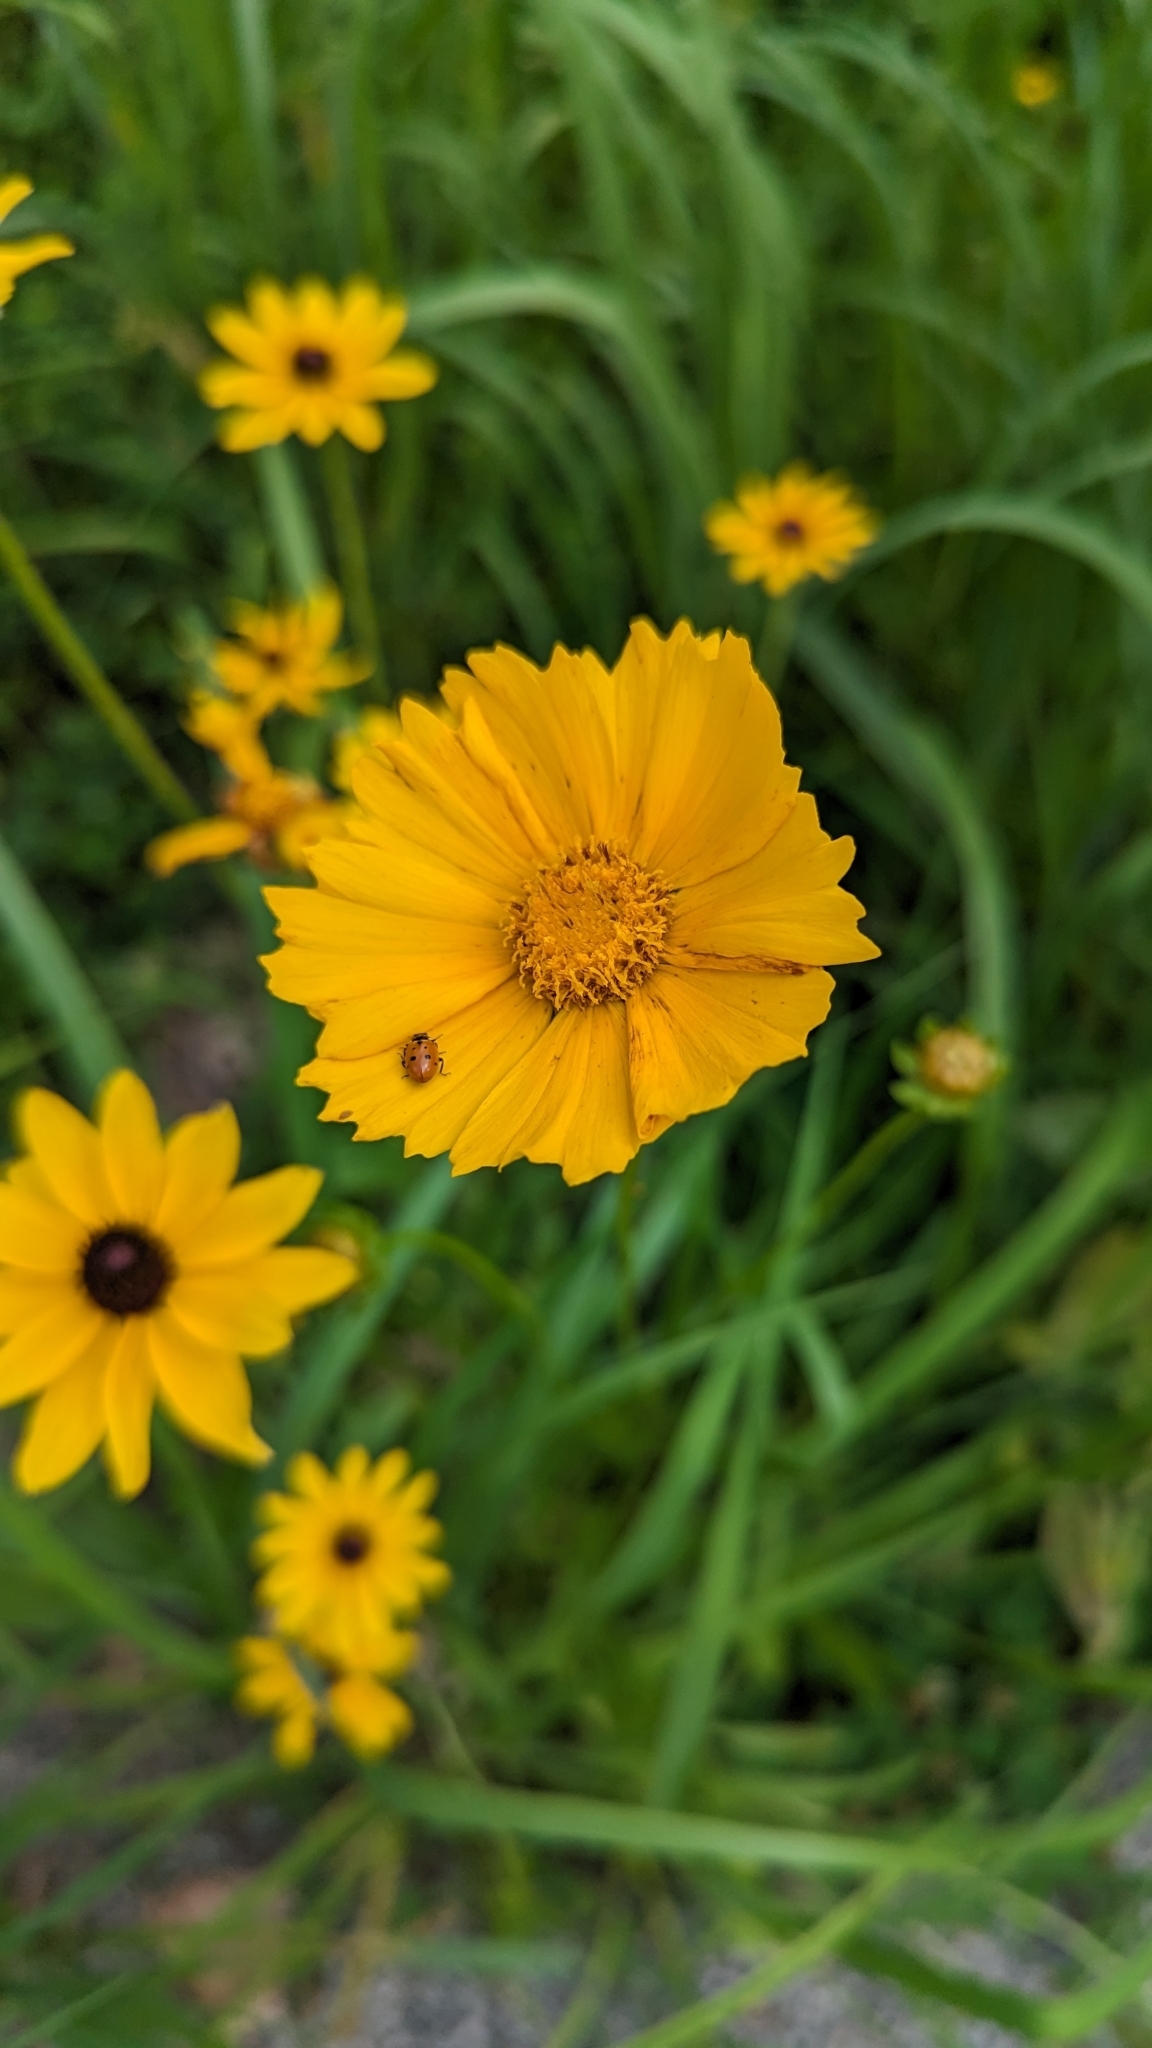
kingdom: Plantae
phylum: Tracheophyta
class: Magnoliopsida
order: Asterales
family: Asteraceae
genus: Coreopsis
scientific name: Coreopsis lanceolata
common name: Garden coreopsis
